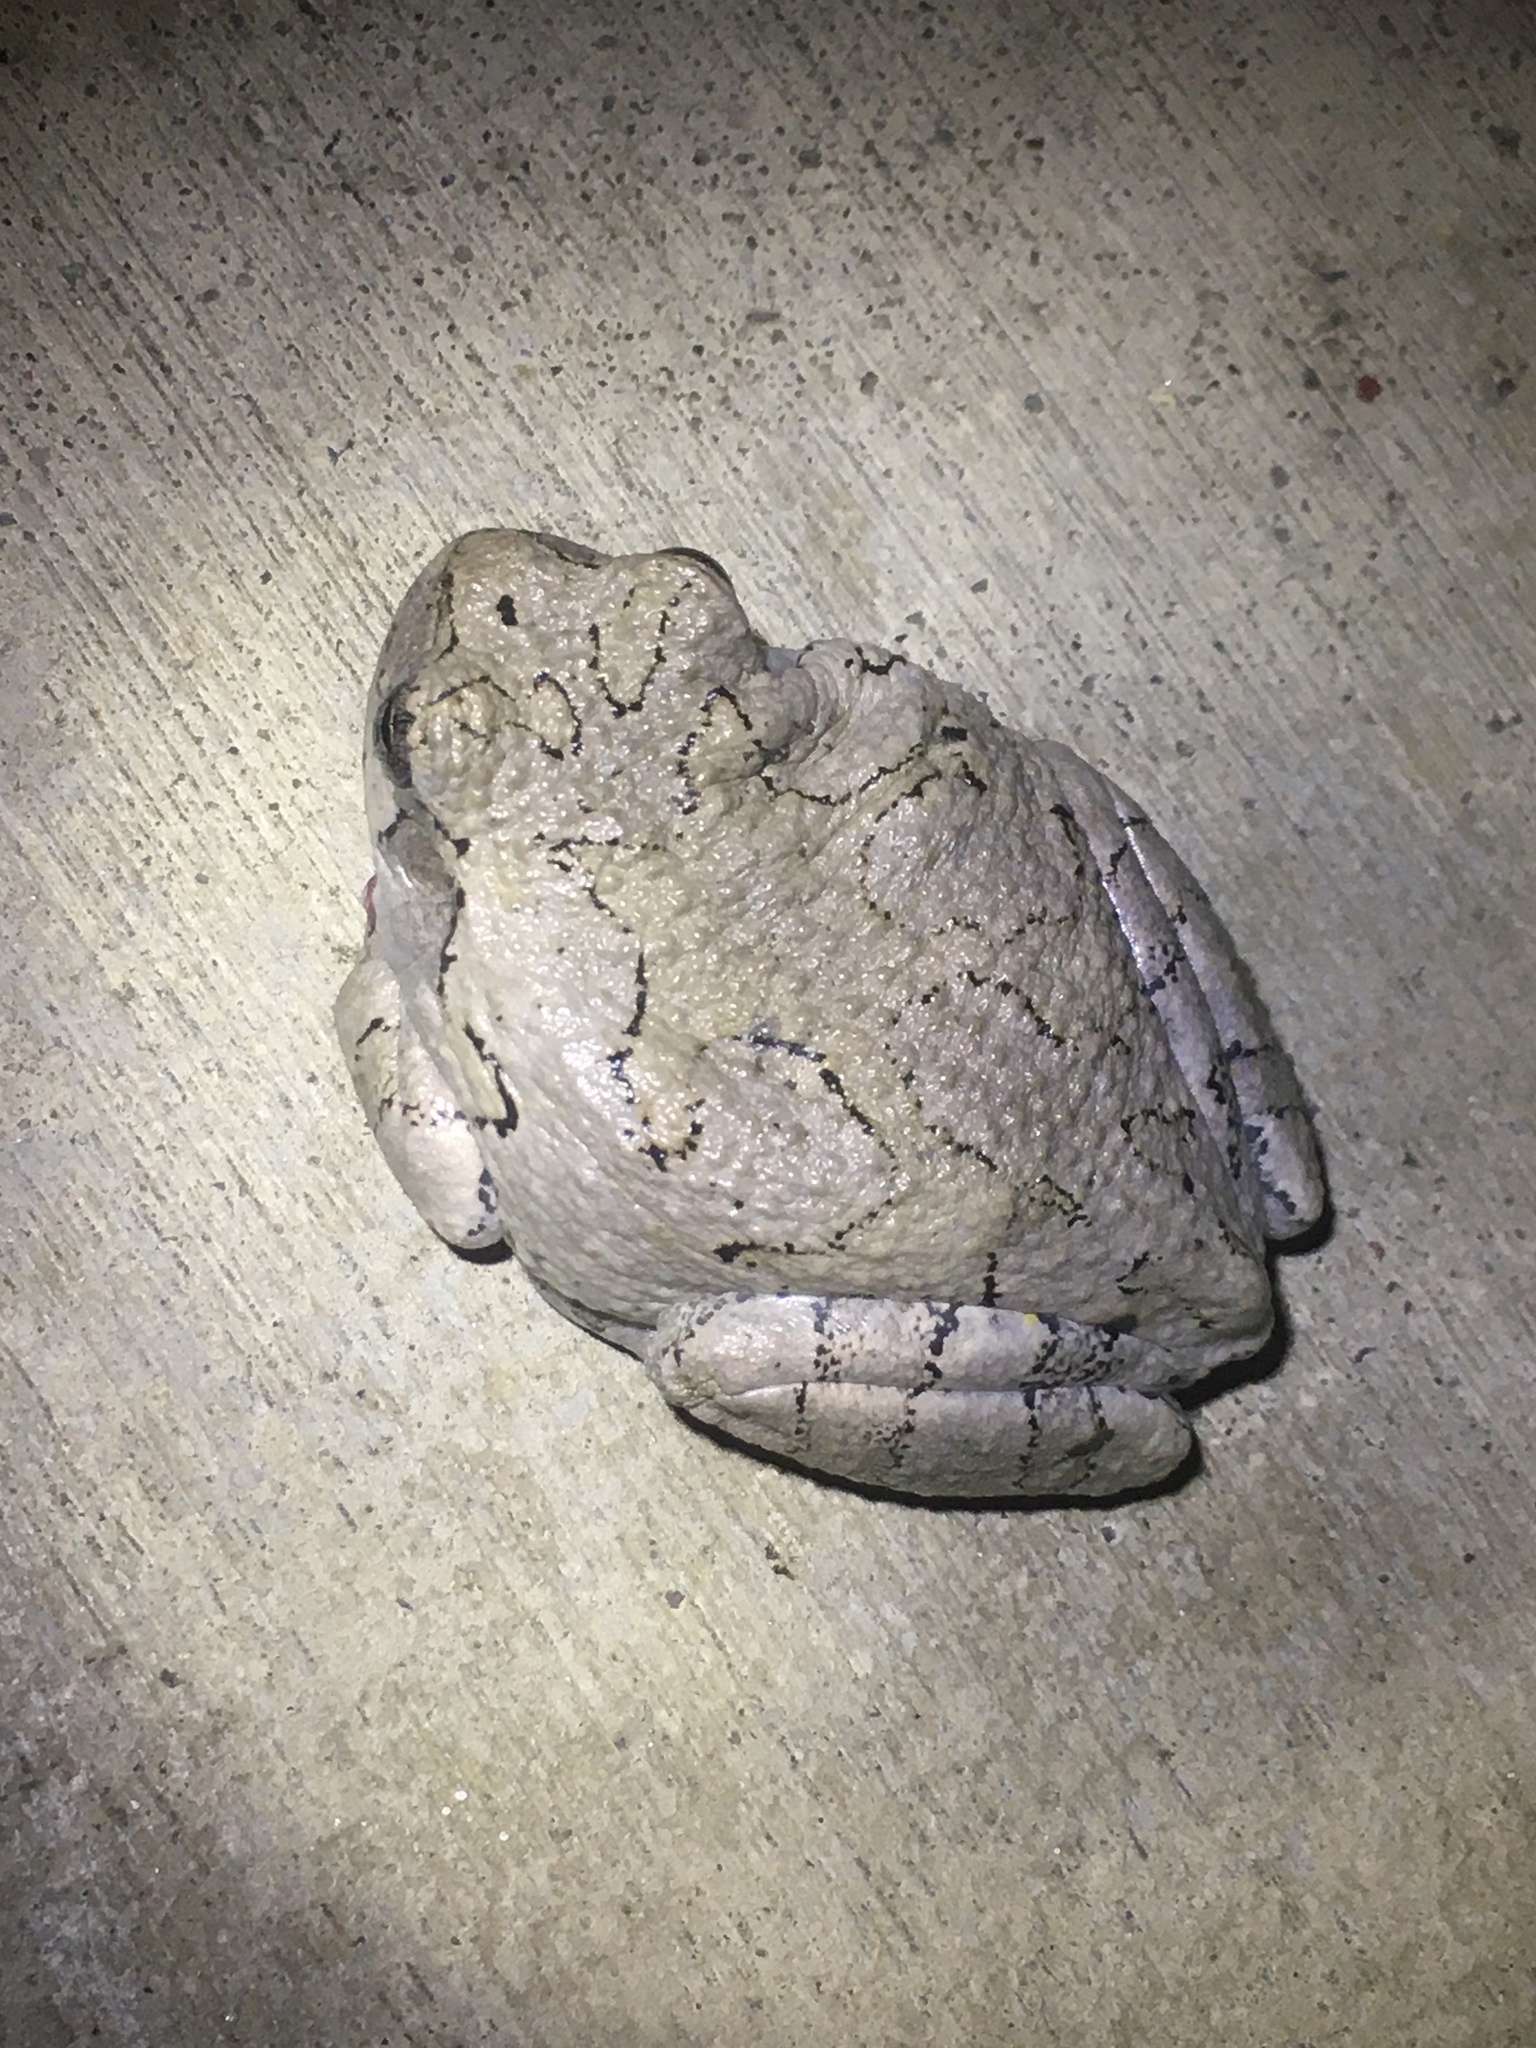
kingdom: Animalia
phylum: Chordata
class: Amphibia
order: Anura
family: Hylidae
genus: Hyla
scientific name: Hyla
